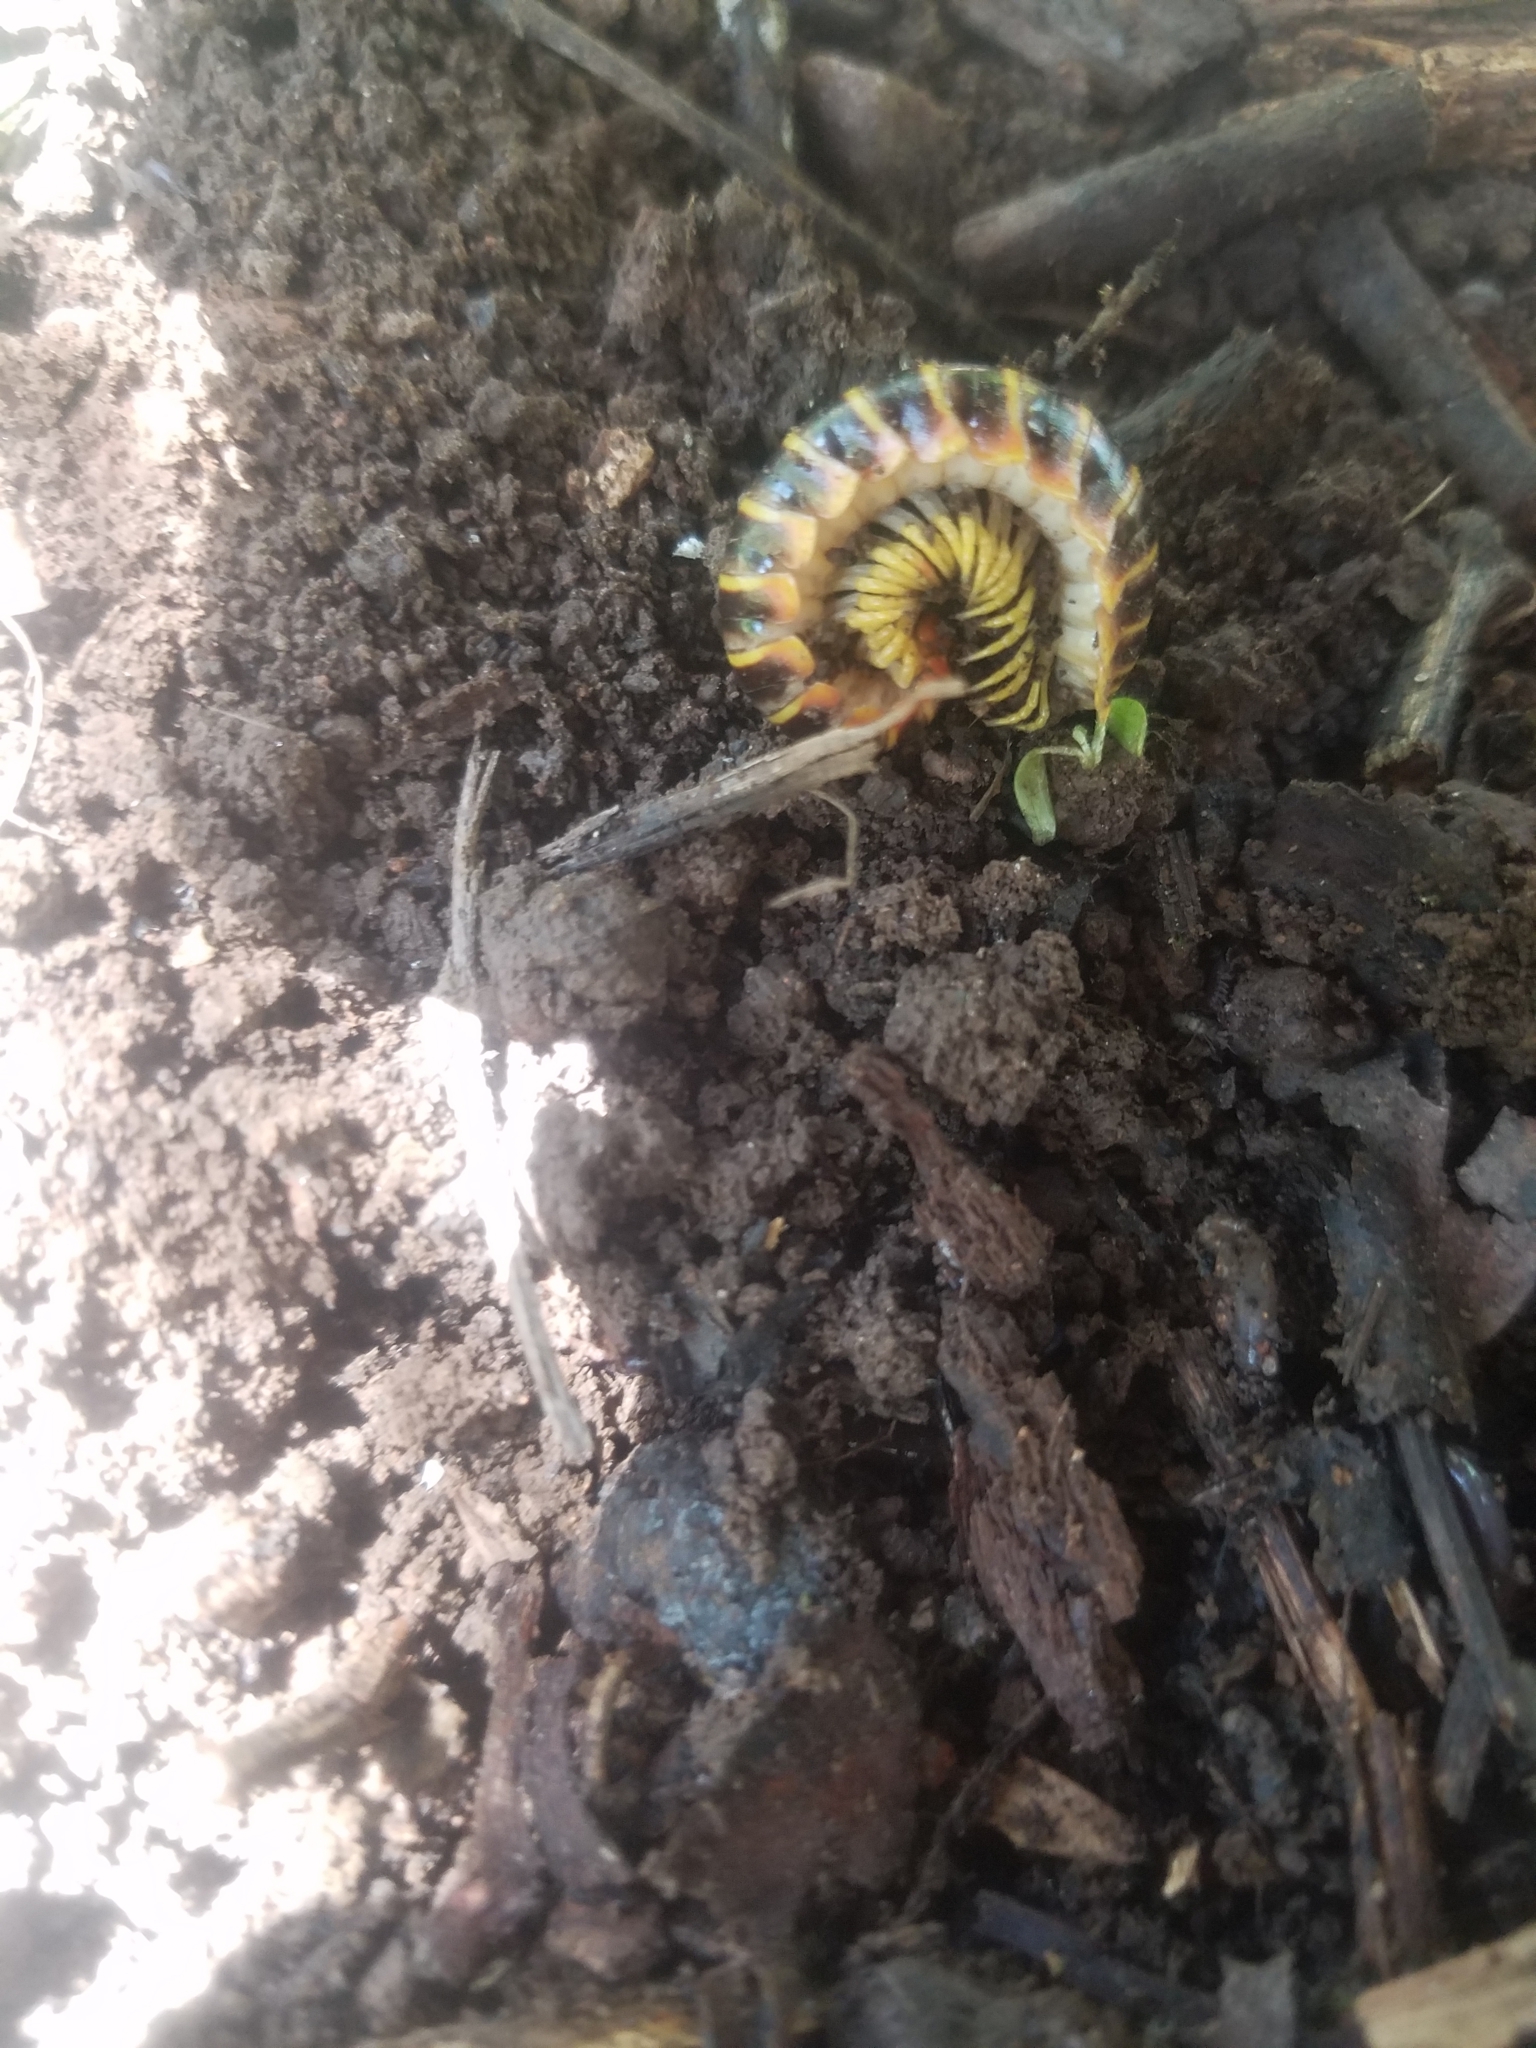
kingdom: Animalia
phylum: Arthropoda
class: Diplopoda
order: Polydesmida
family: Xystodesmidae
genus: Apheloria
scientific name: Apheloria virginiensis
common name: Black-and-gold flat millipede
